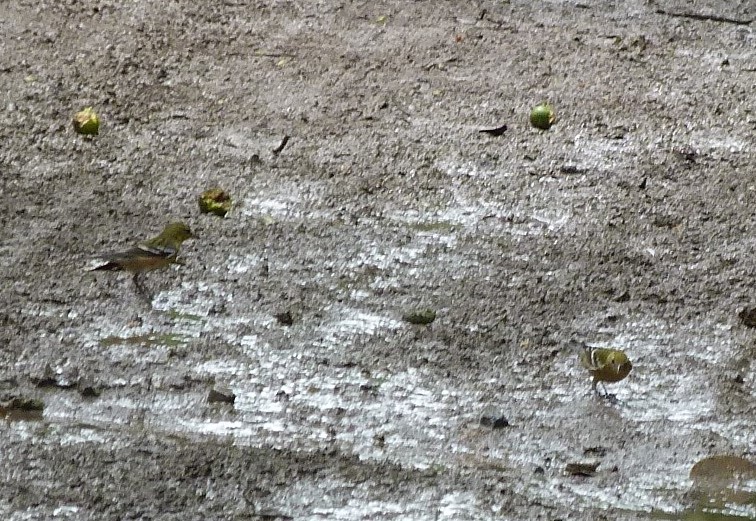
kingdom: Animalia
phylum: Chordata
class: Aves
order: Passeriformes
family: Parulidae
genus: Setophaga
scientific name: Setophaga castanea
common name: Bay-breasted warbler
